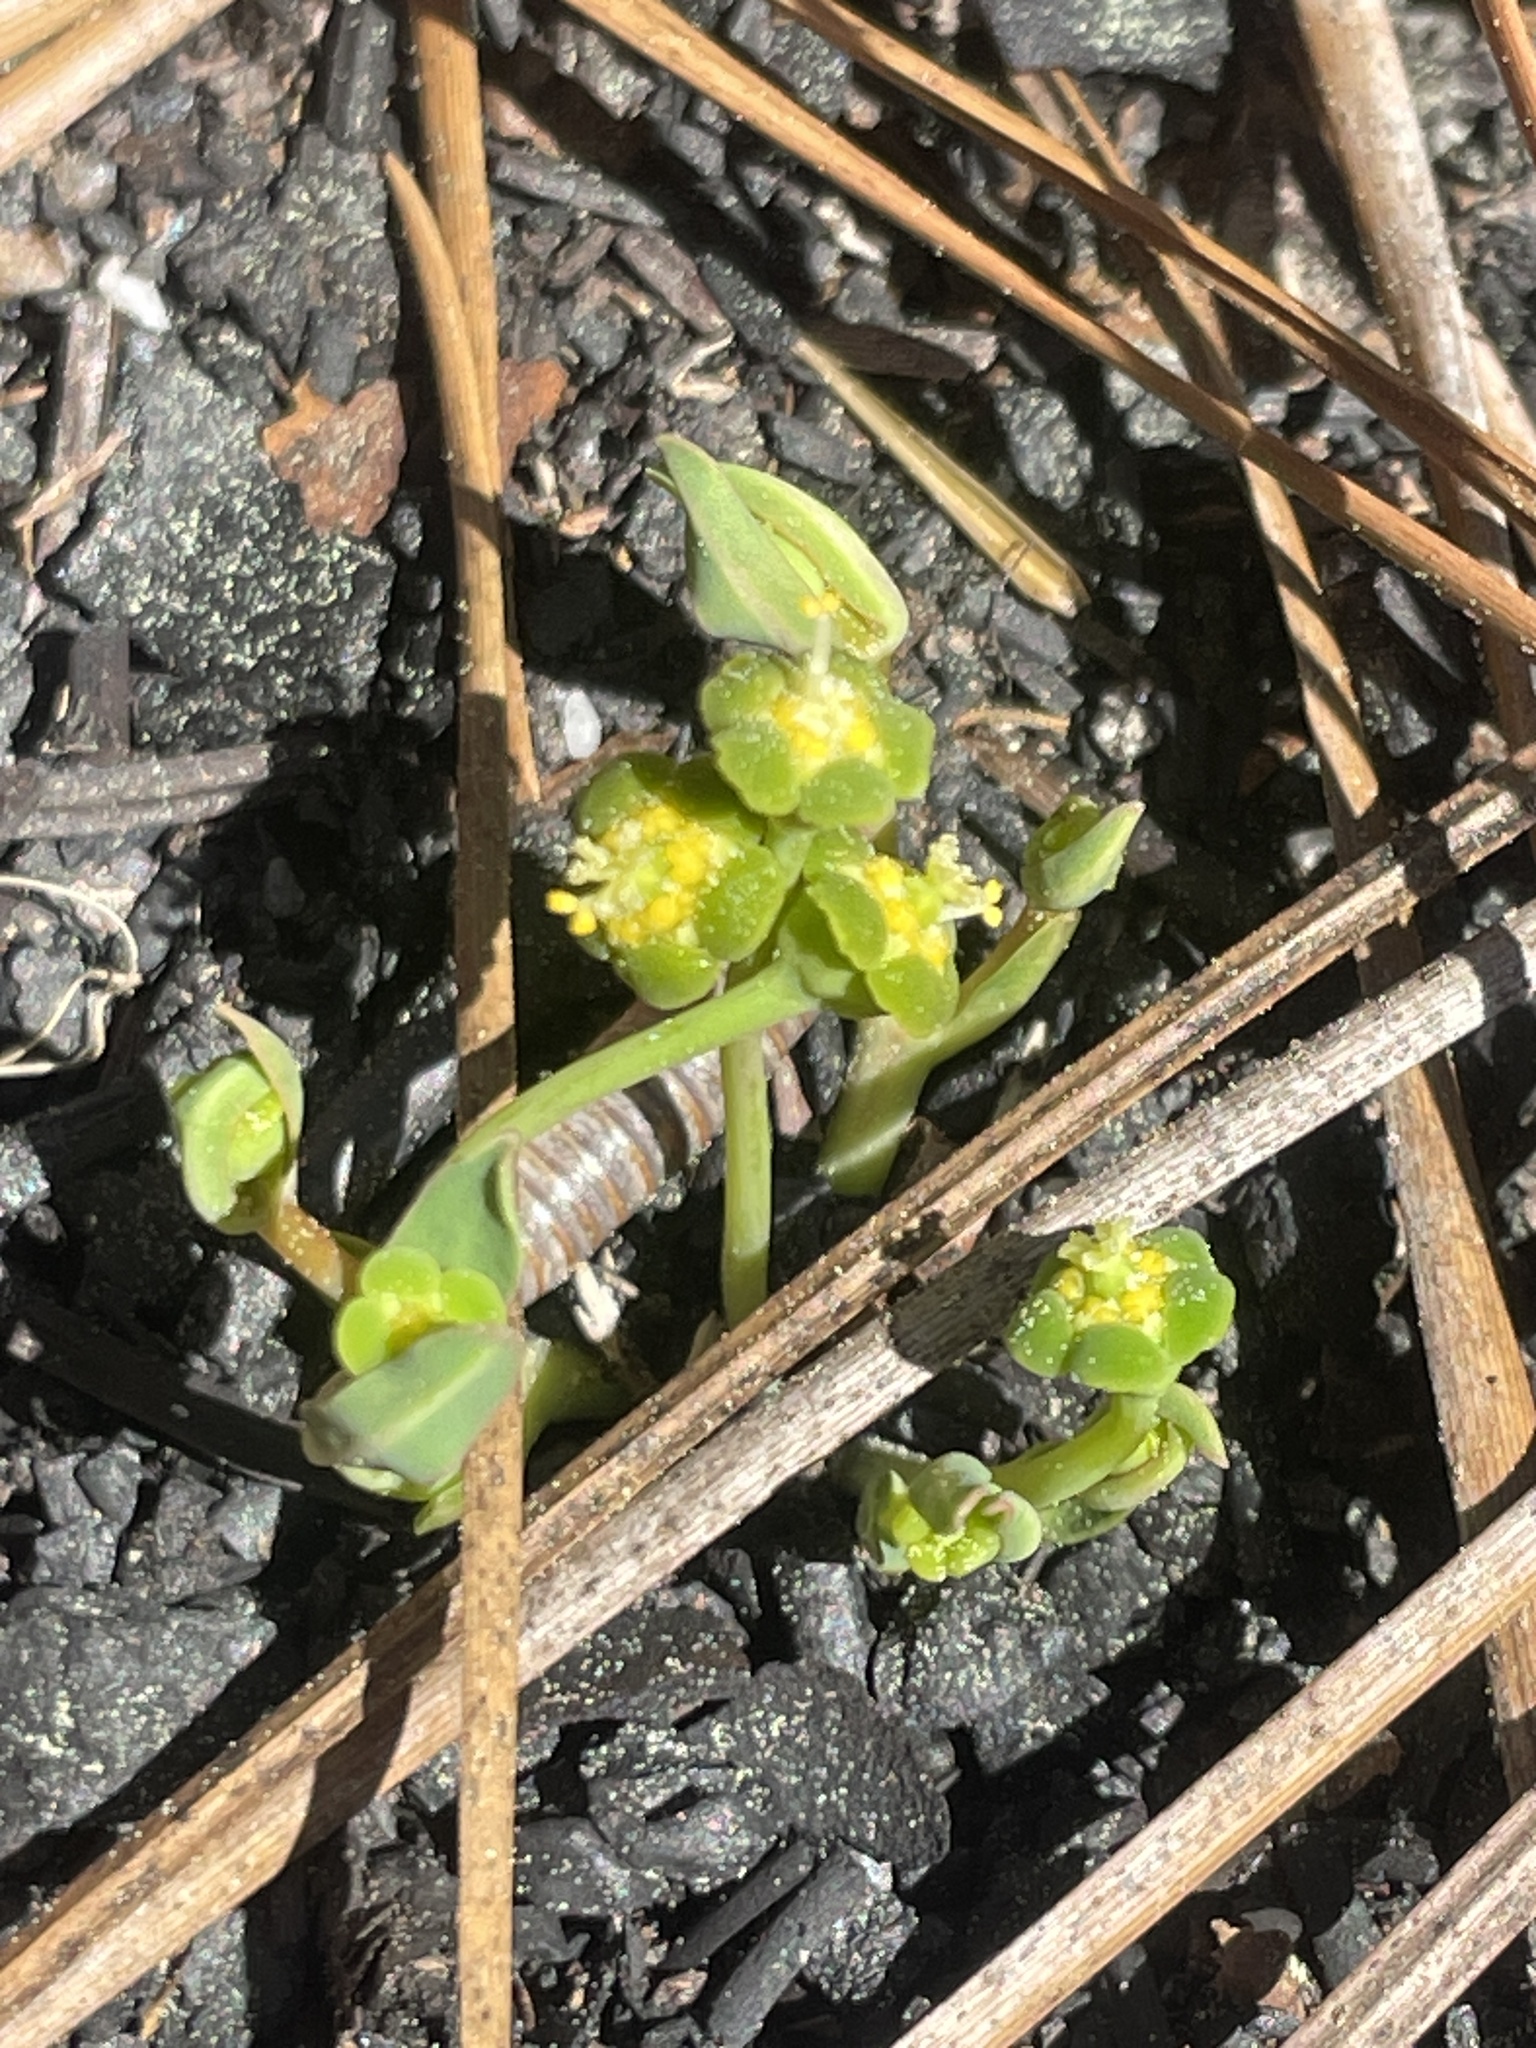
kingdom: Plantae
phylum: Tracheophyta
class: Magnoliopsida
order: Malpighiales
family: Euphorbiaceae
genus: Euphorbia
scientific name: Euphorbia ipecacuanhae
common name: Carolina ipecac
